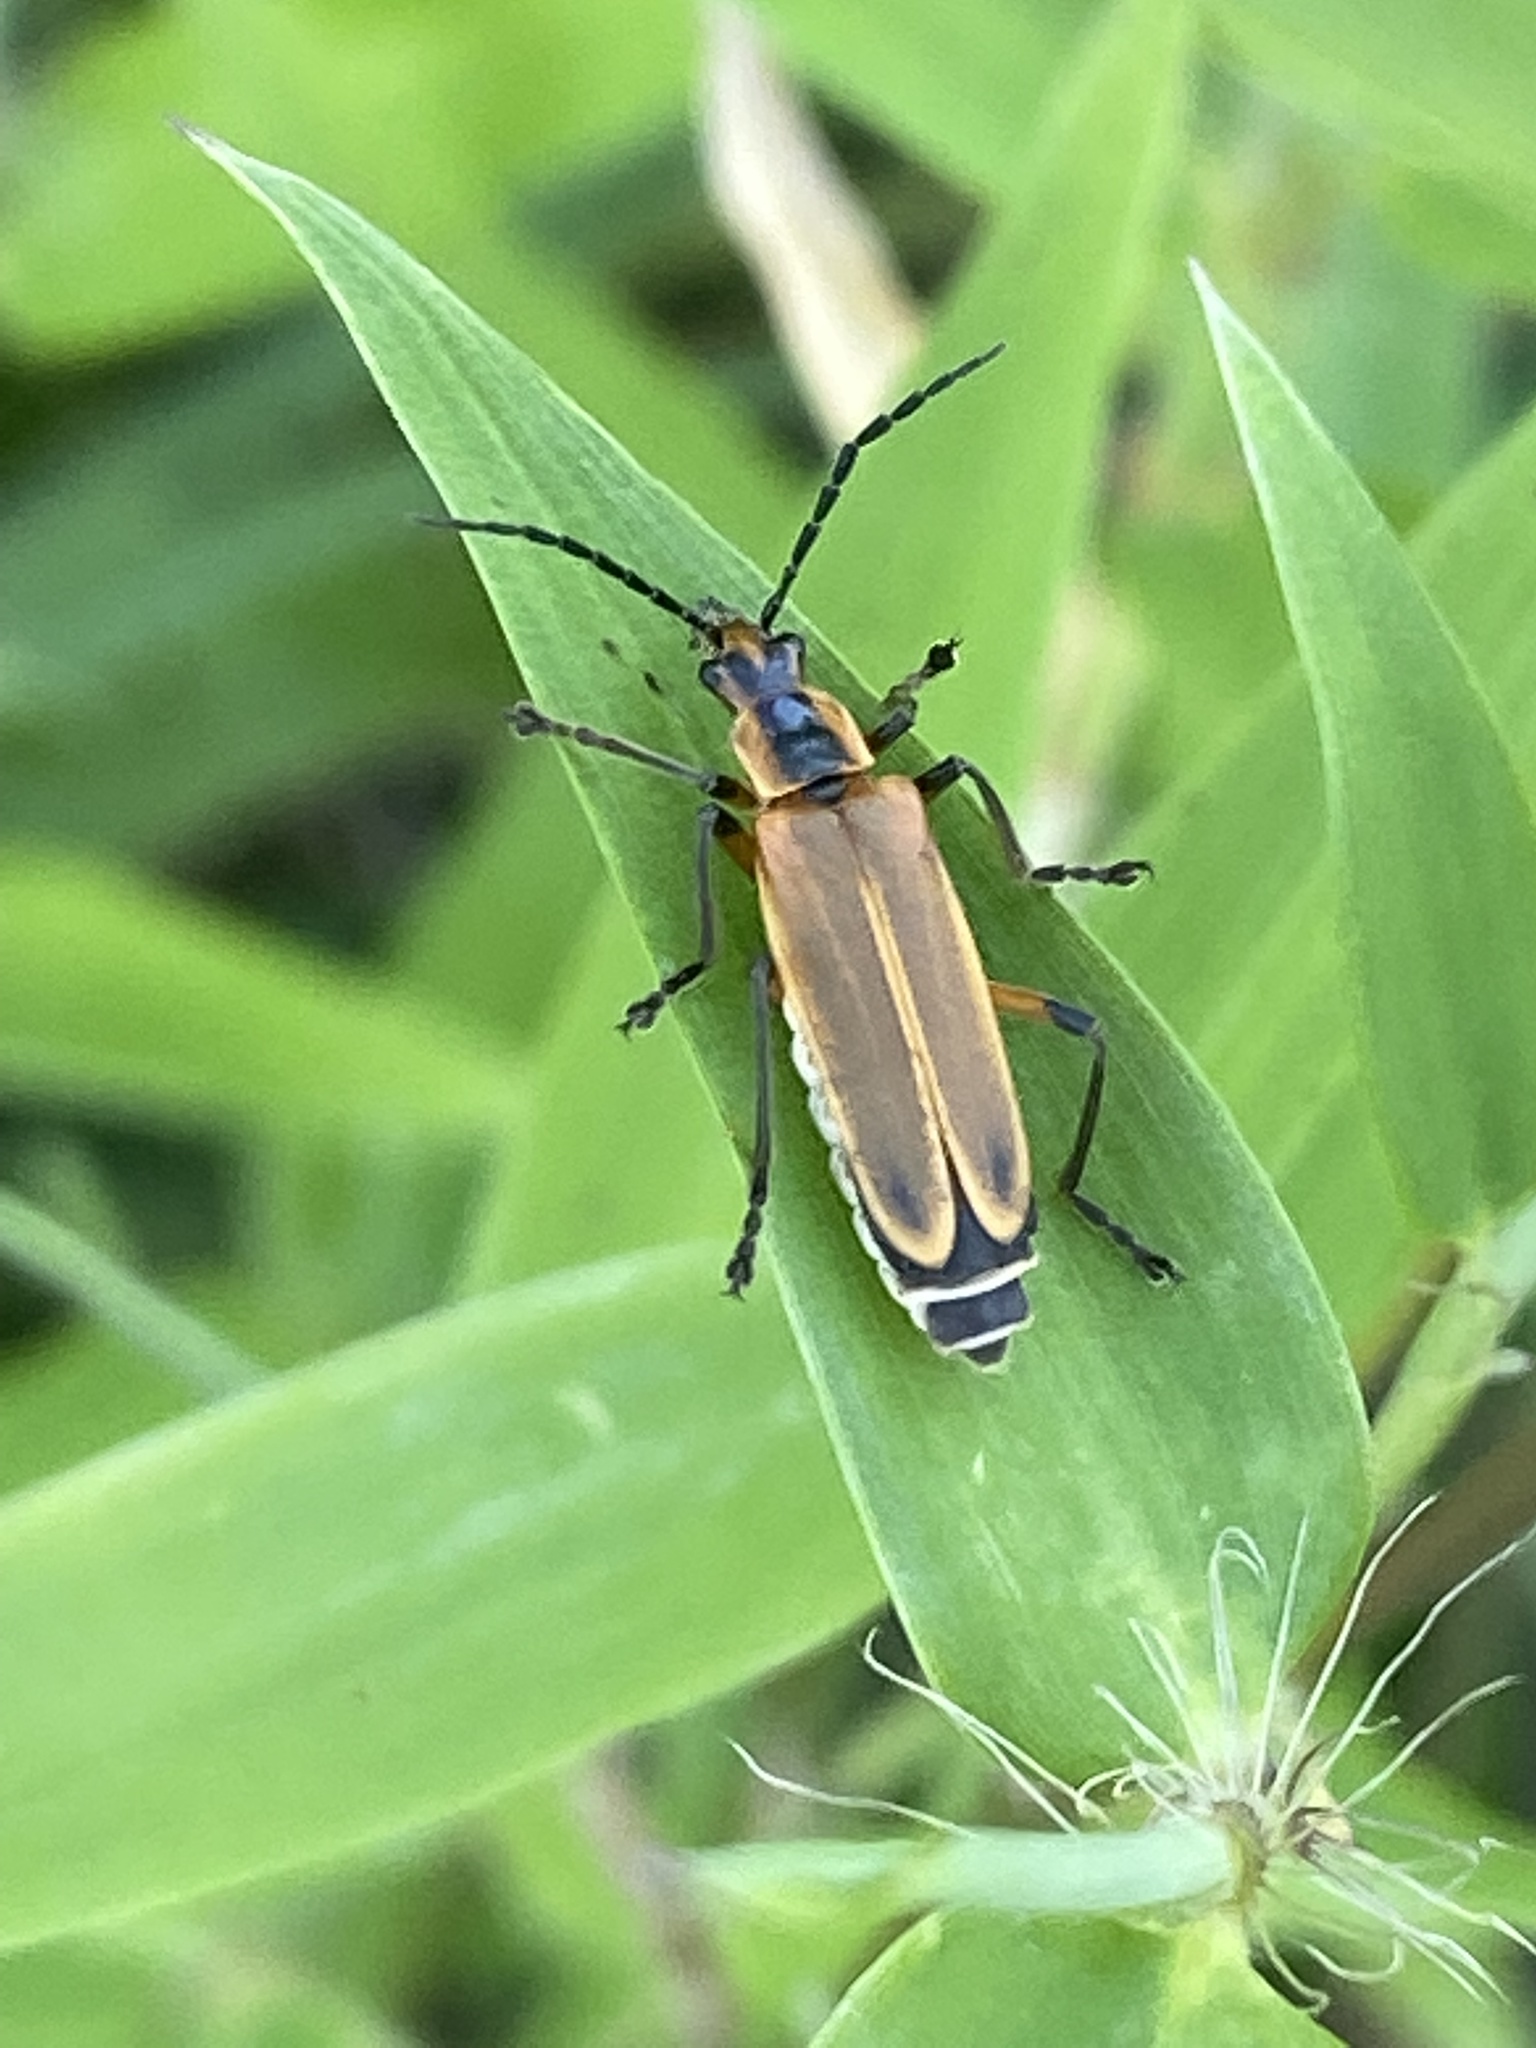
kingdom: Animalia
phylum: Arthropoda
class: Insecta
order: Coleoptera
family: Cantharidae
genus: Chauliognathus
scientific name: Chauliognathus marginatus
